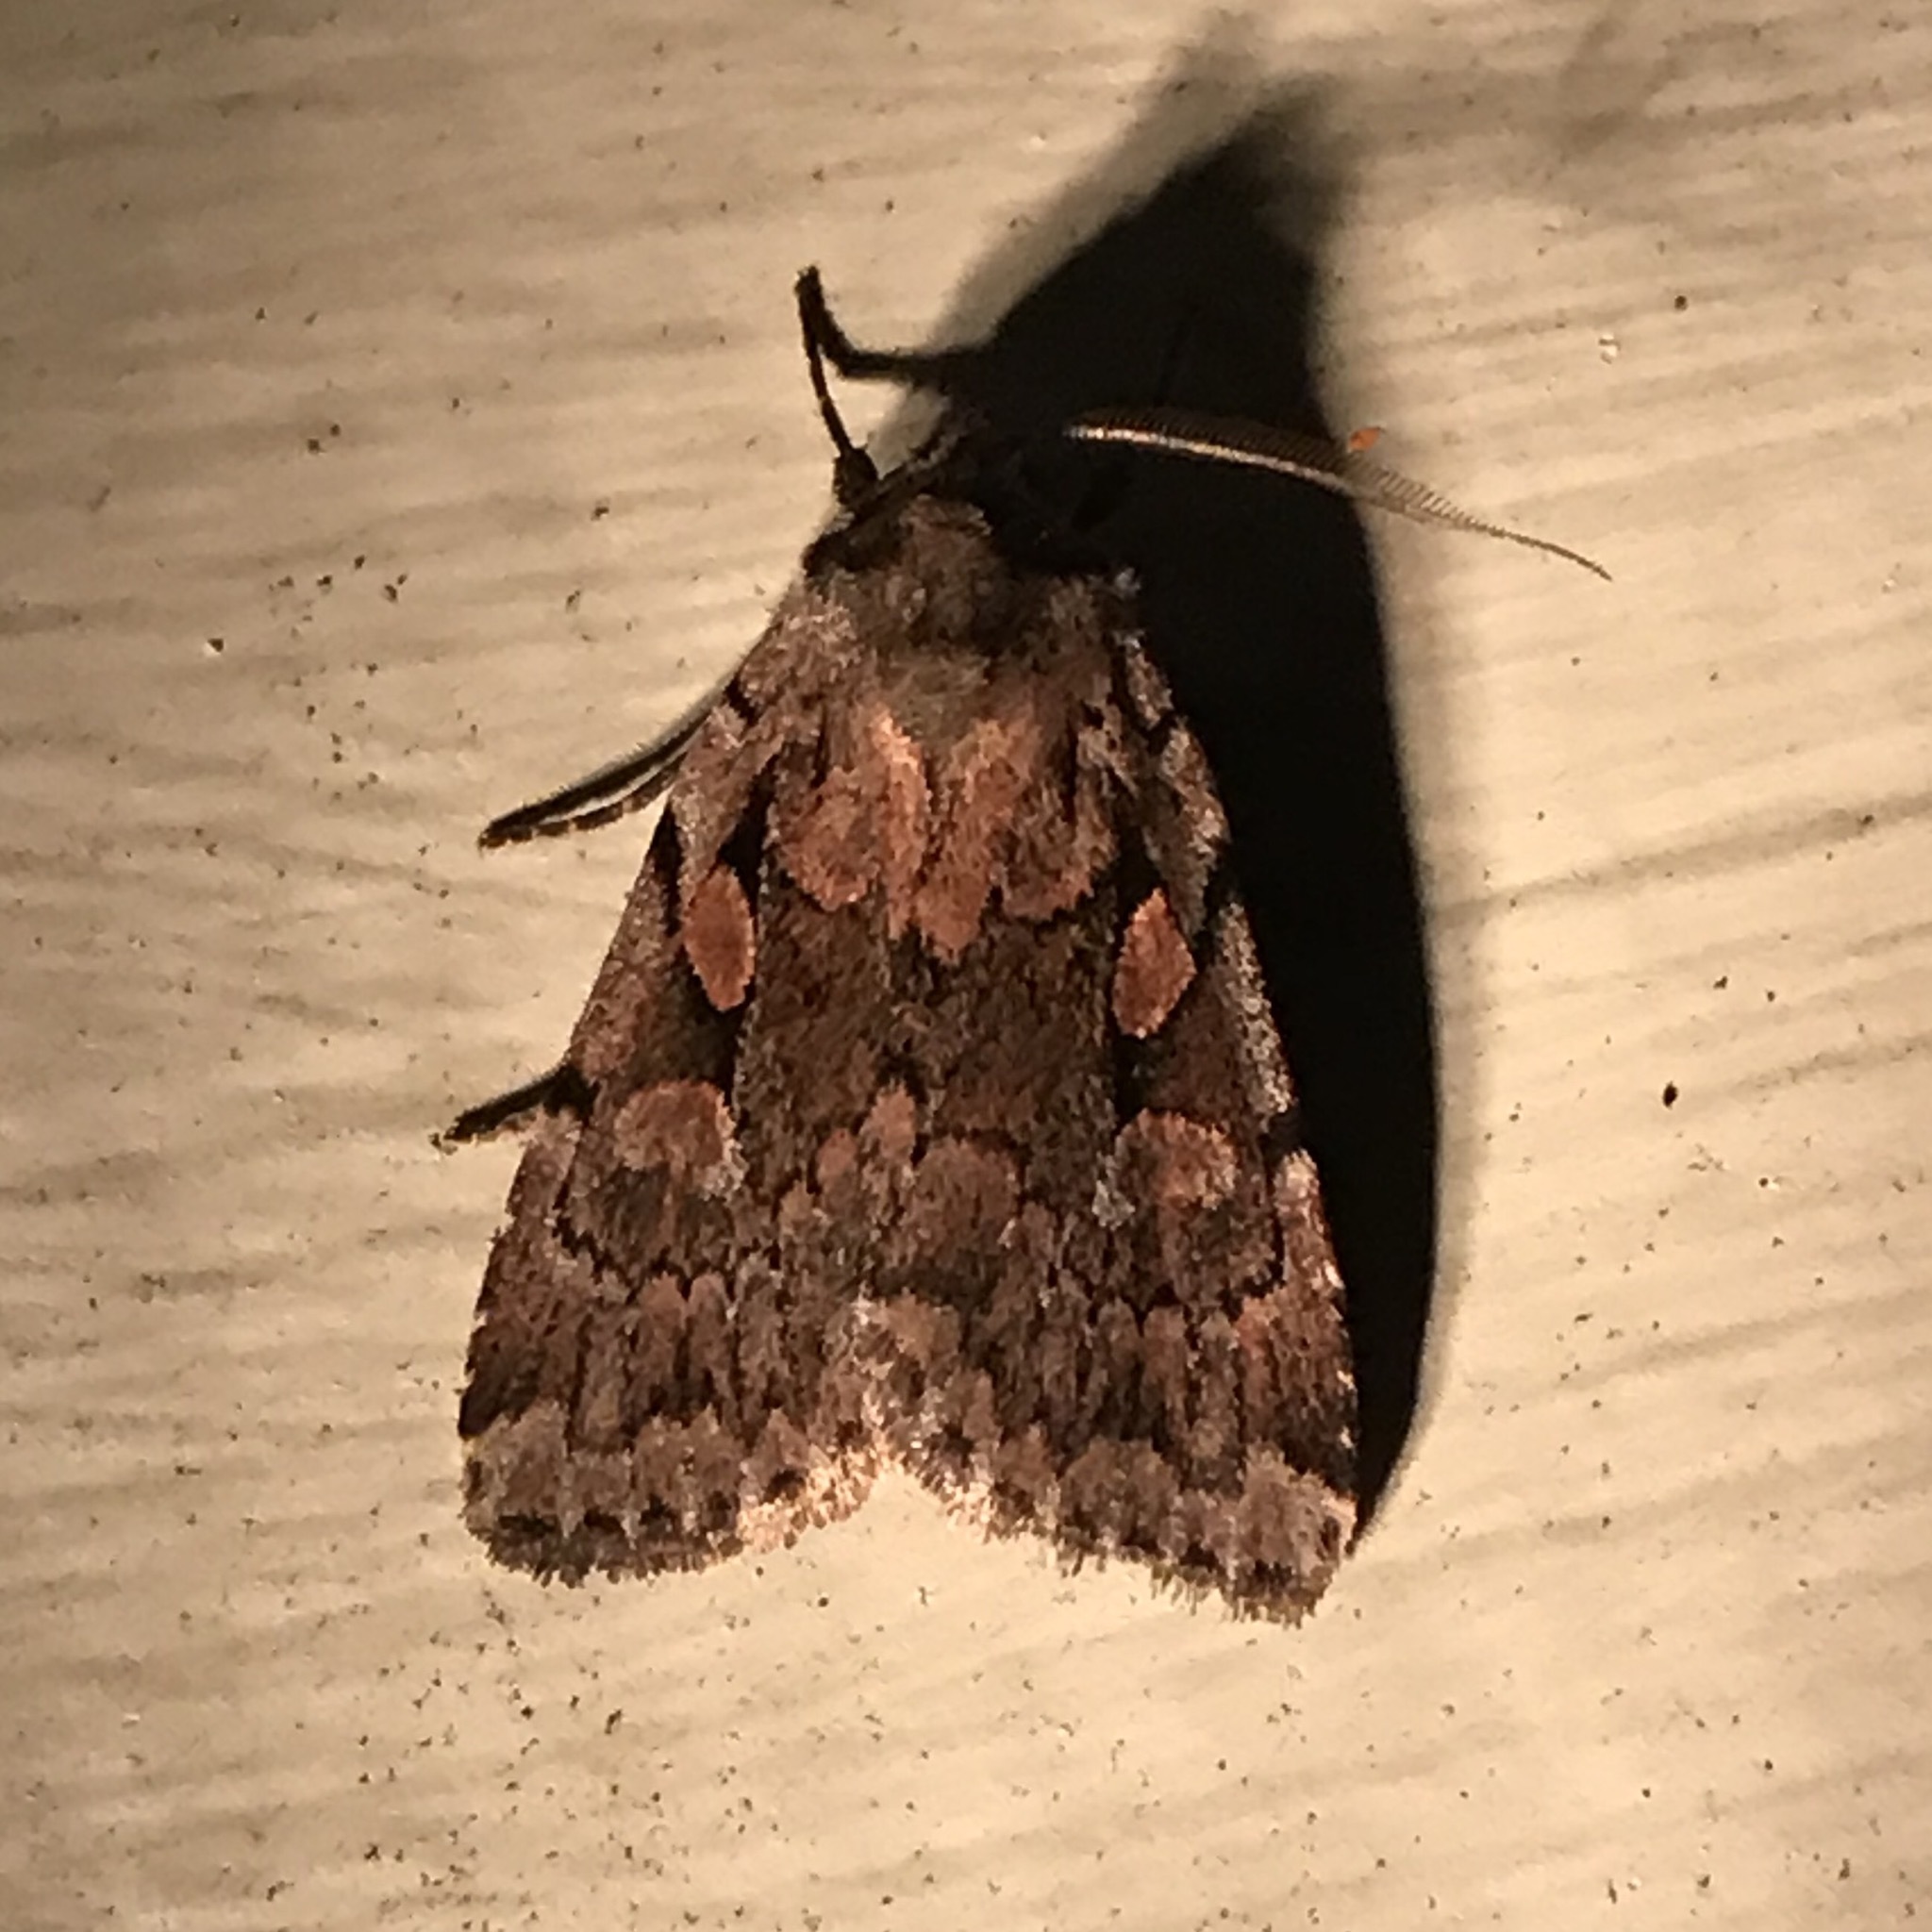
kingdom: Animalia
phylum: Arthropoda
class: Insecta
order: Lepidoptera
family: Noctuidae
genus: Xestia
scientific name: Xestia praevia
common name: Praevia dart
